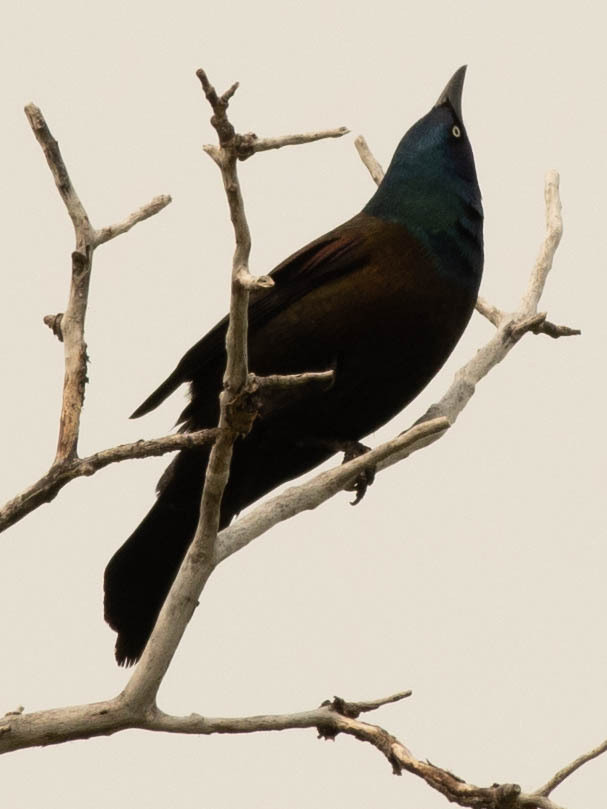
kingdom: Animalia
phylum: Chordata
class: Aves
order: Passeriformes
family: Icteridae
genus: Quiscalus
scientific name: Quiscalus quiscula
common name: Common grackle
